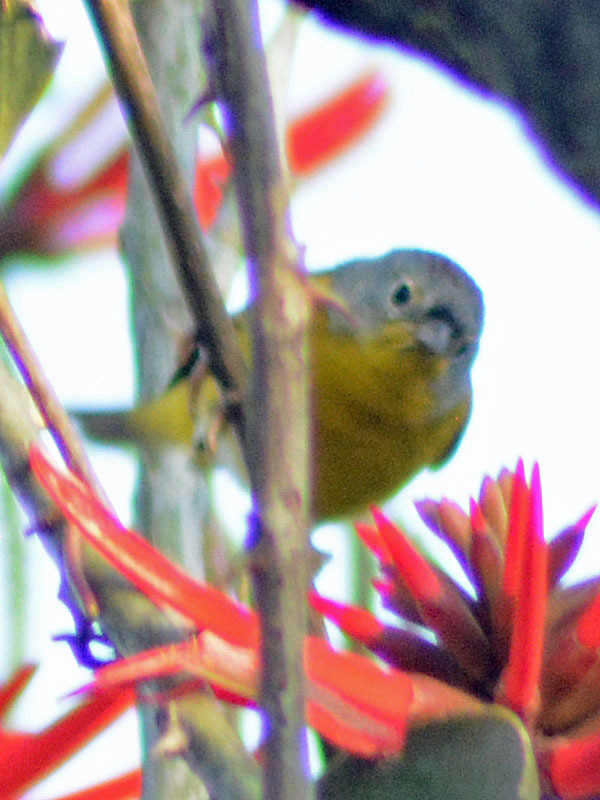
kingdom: Animalia
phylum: Chordata
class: Aves
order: Passeriformes
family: Parulidae
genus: Leiothlypis
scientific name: Leiothlypis ruficapilla
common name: Nashville warbler
